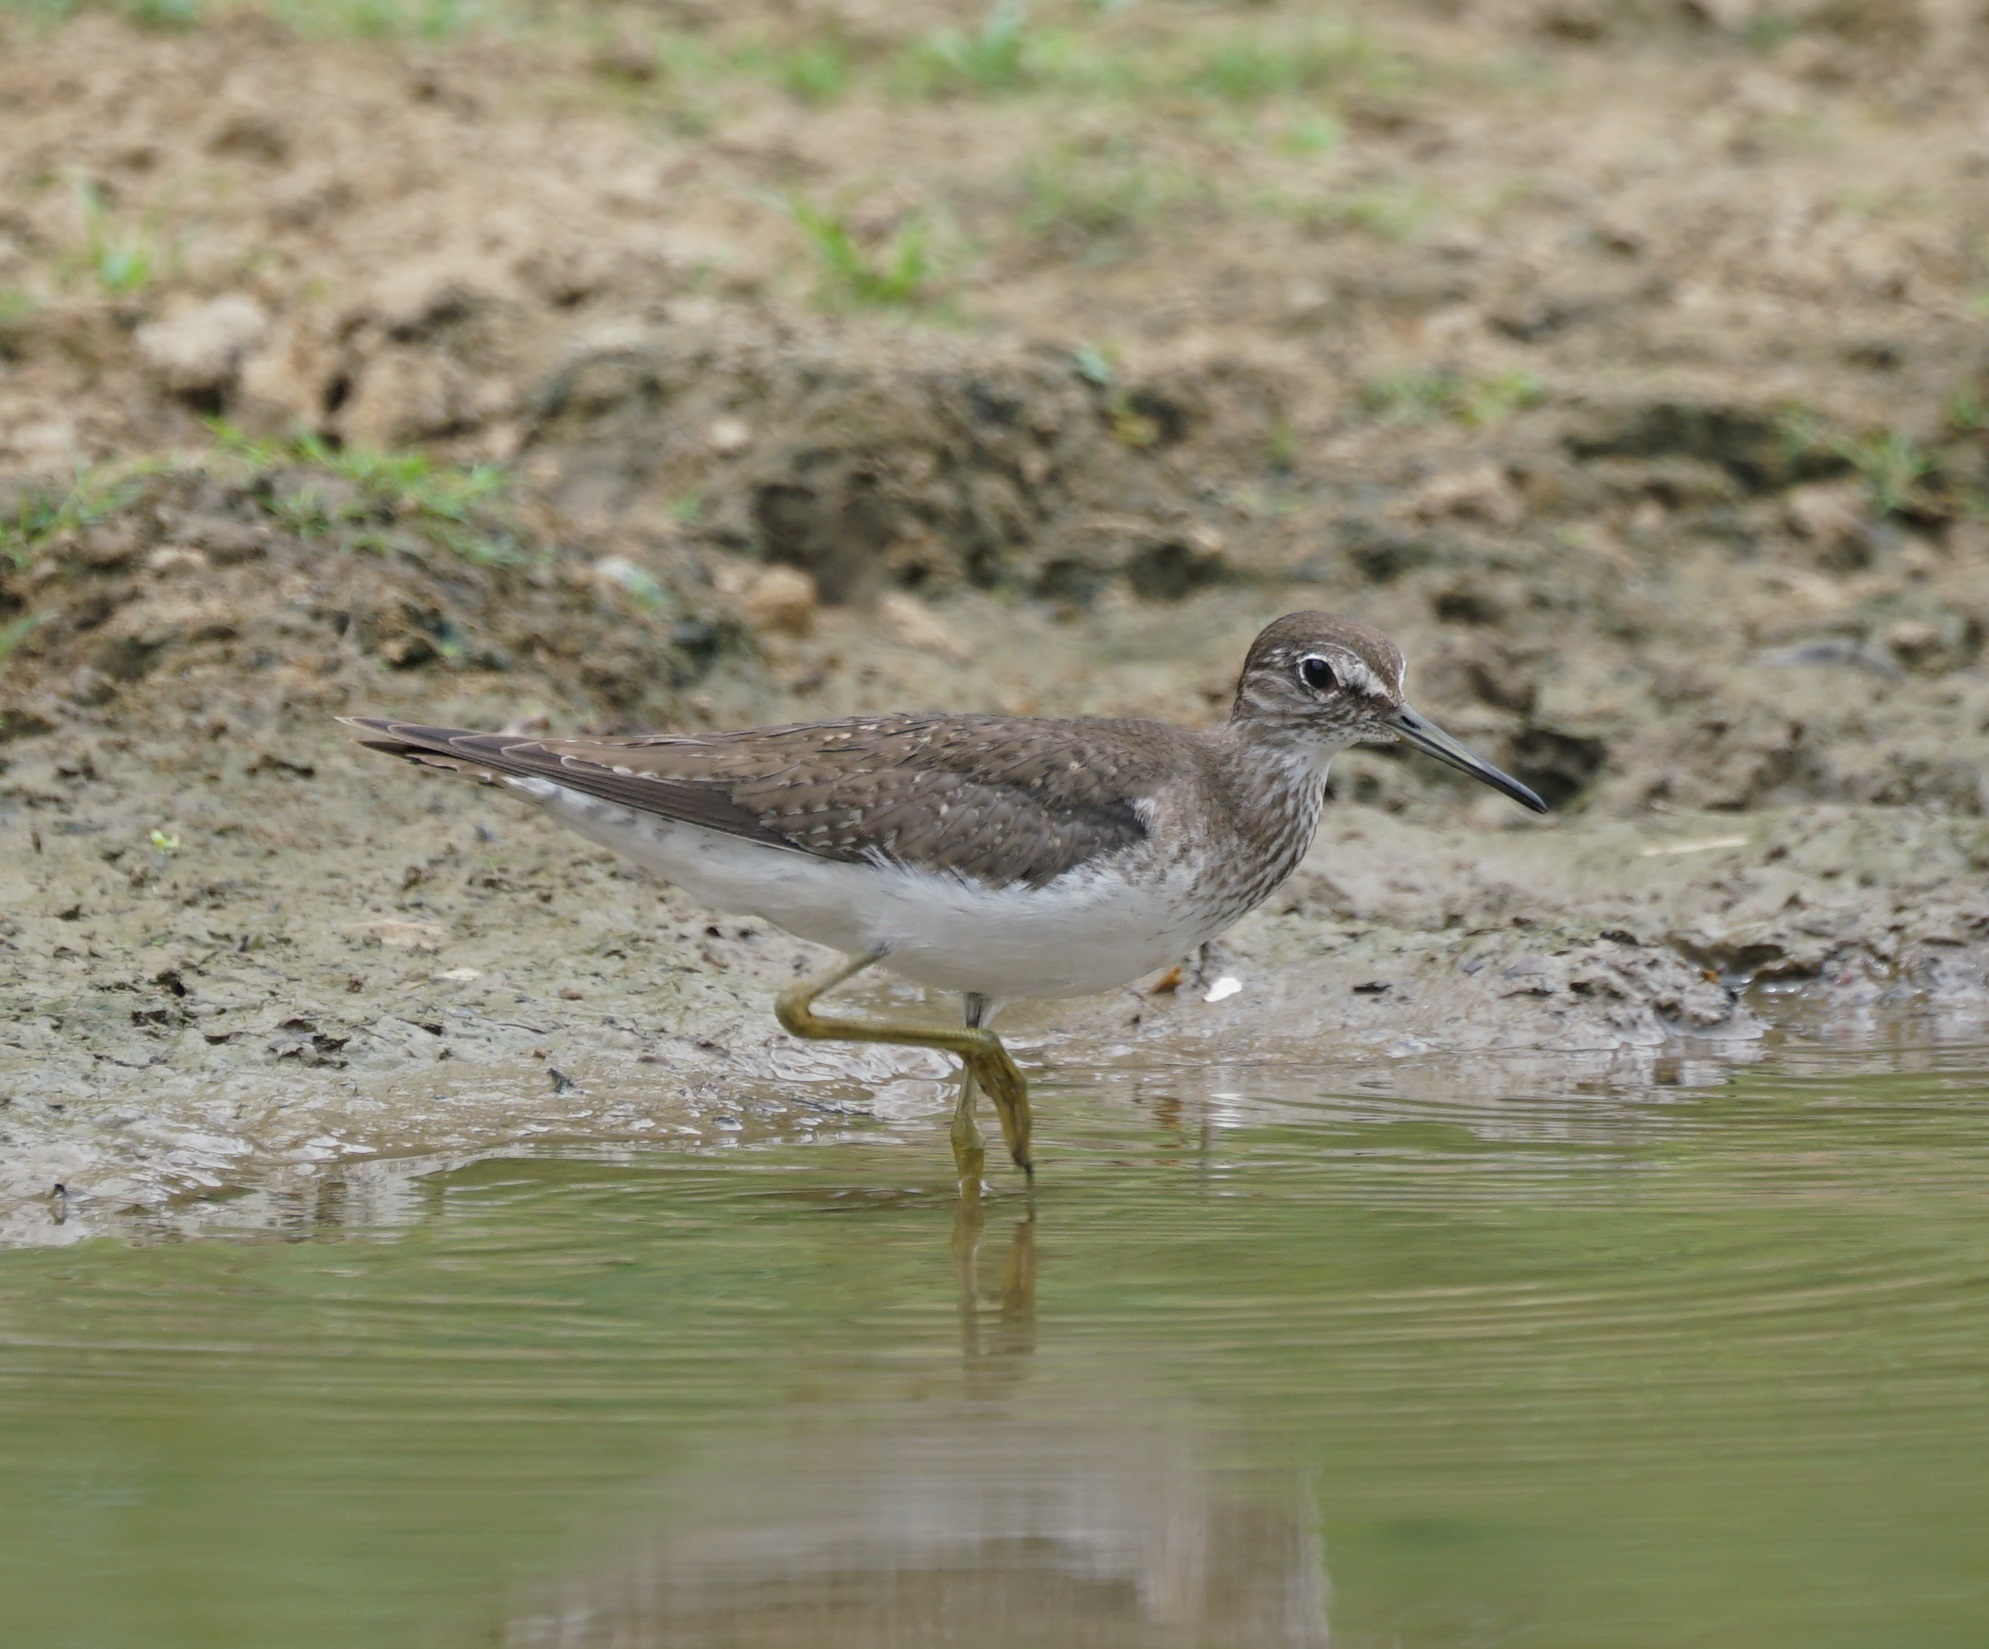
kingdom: Animalia
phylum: Chordata
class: Aves
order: Charadriiformes
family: Scolopacidae
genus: Tringa
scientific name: Tringa solitaria
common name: Solitary sandpiper
